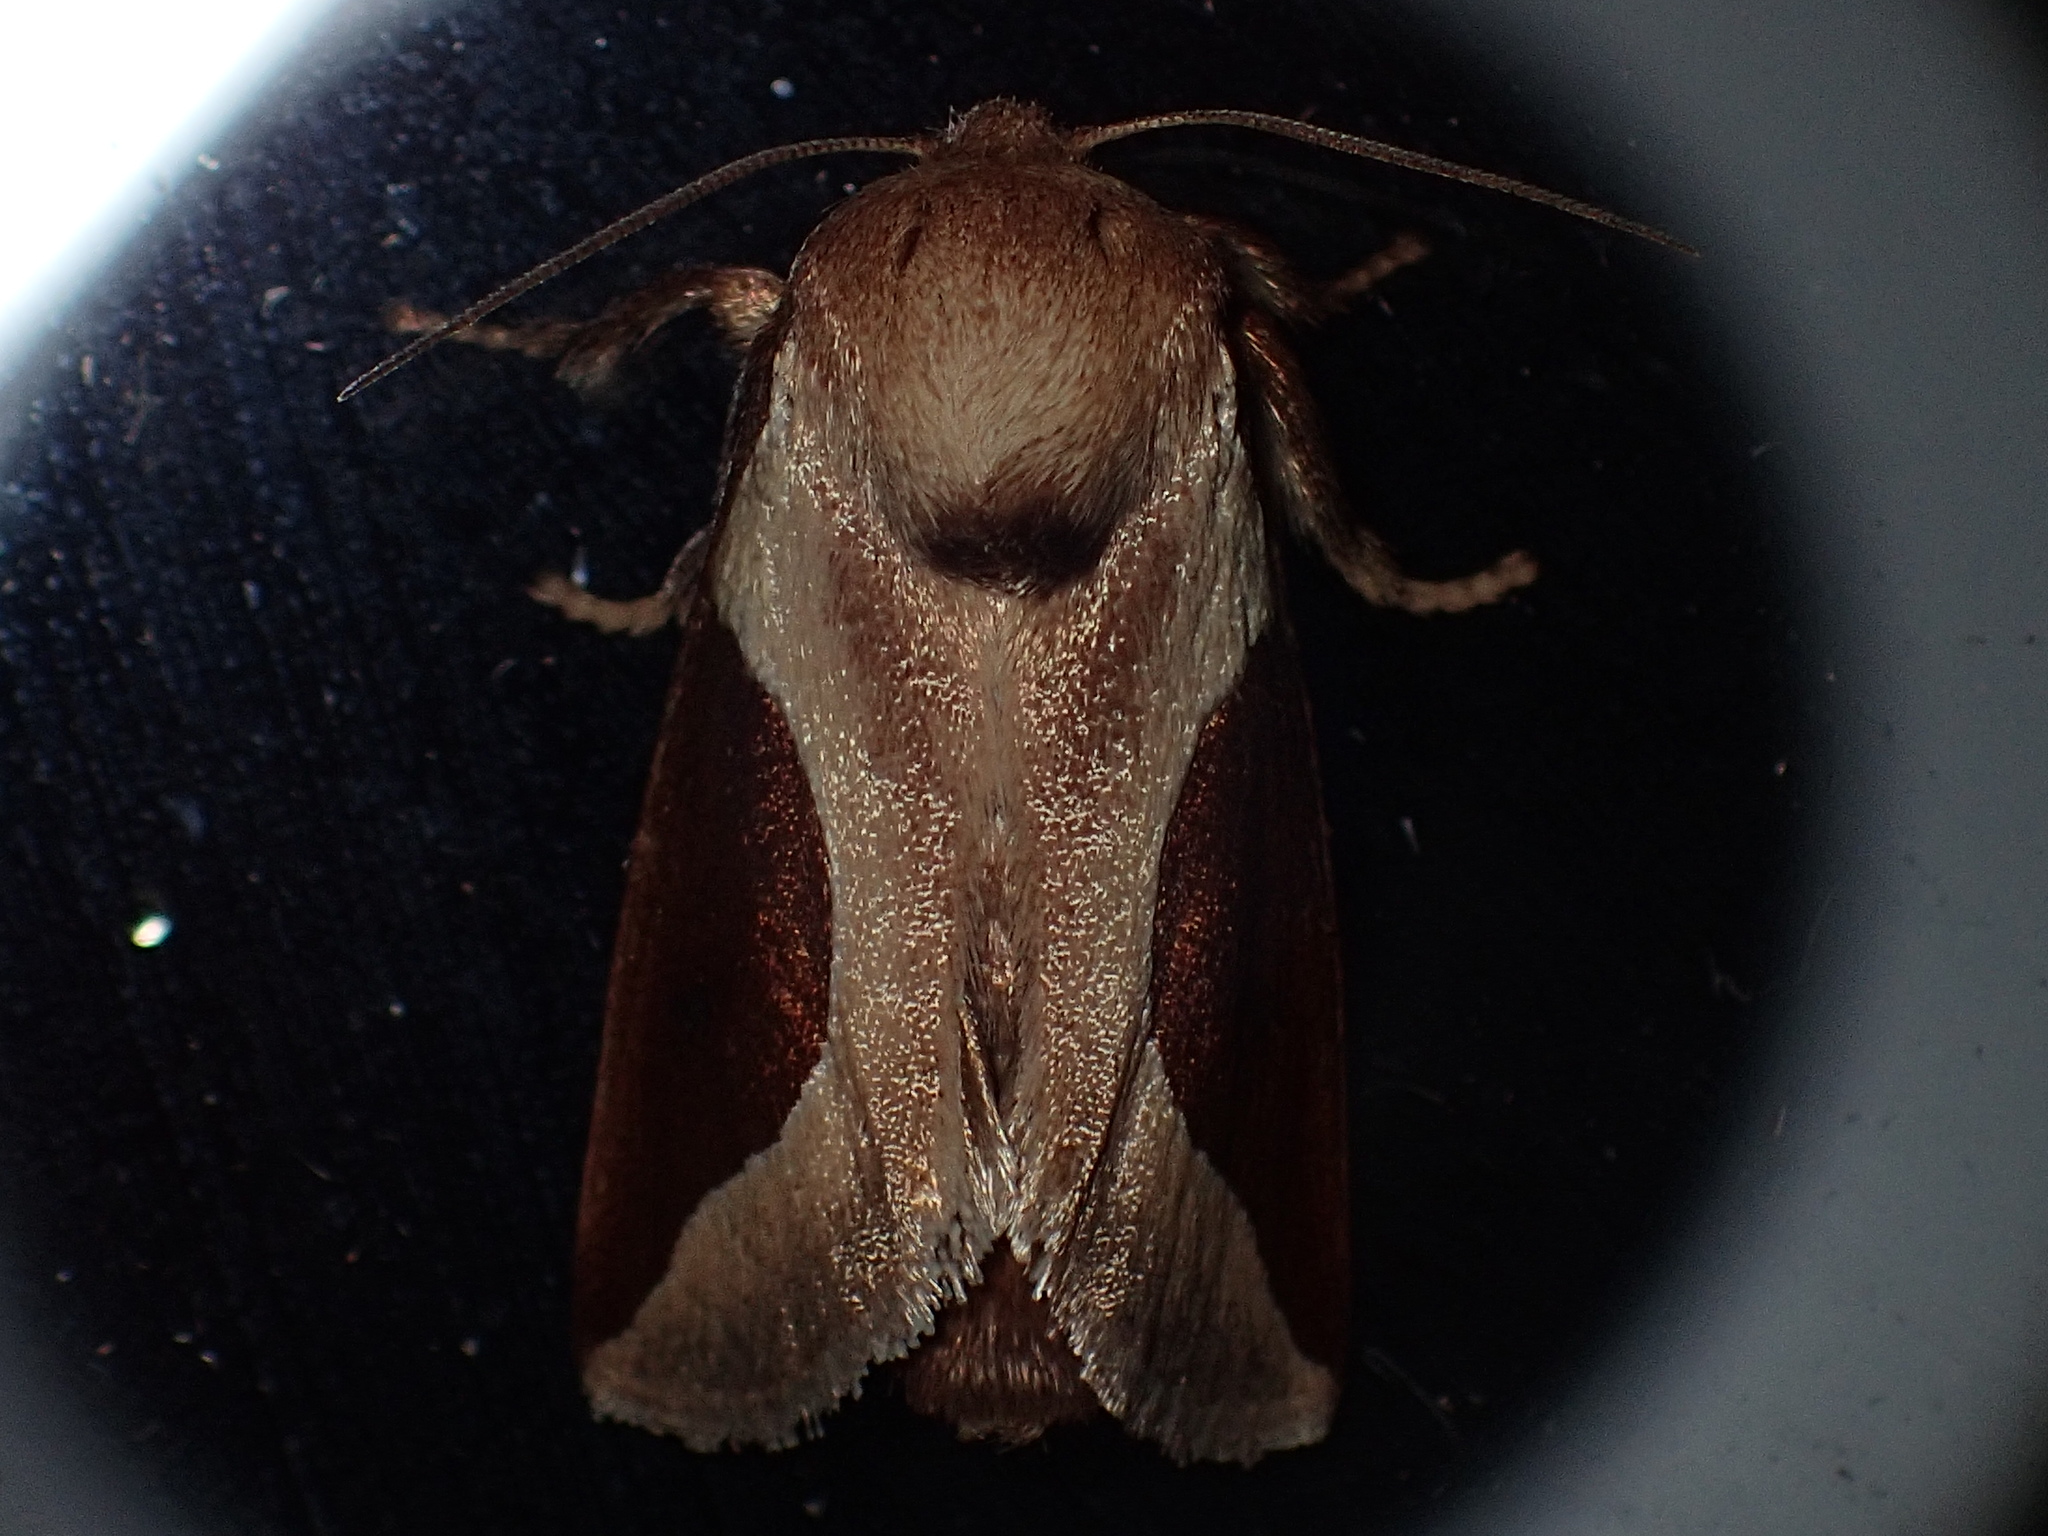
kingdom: Animalia
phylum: Arthropoda
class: Insecta
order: Lepidoptera
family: Limacodidae
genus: Prolimacodes
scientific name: Prolimacodes badia
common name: Skiff moth
